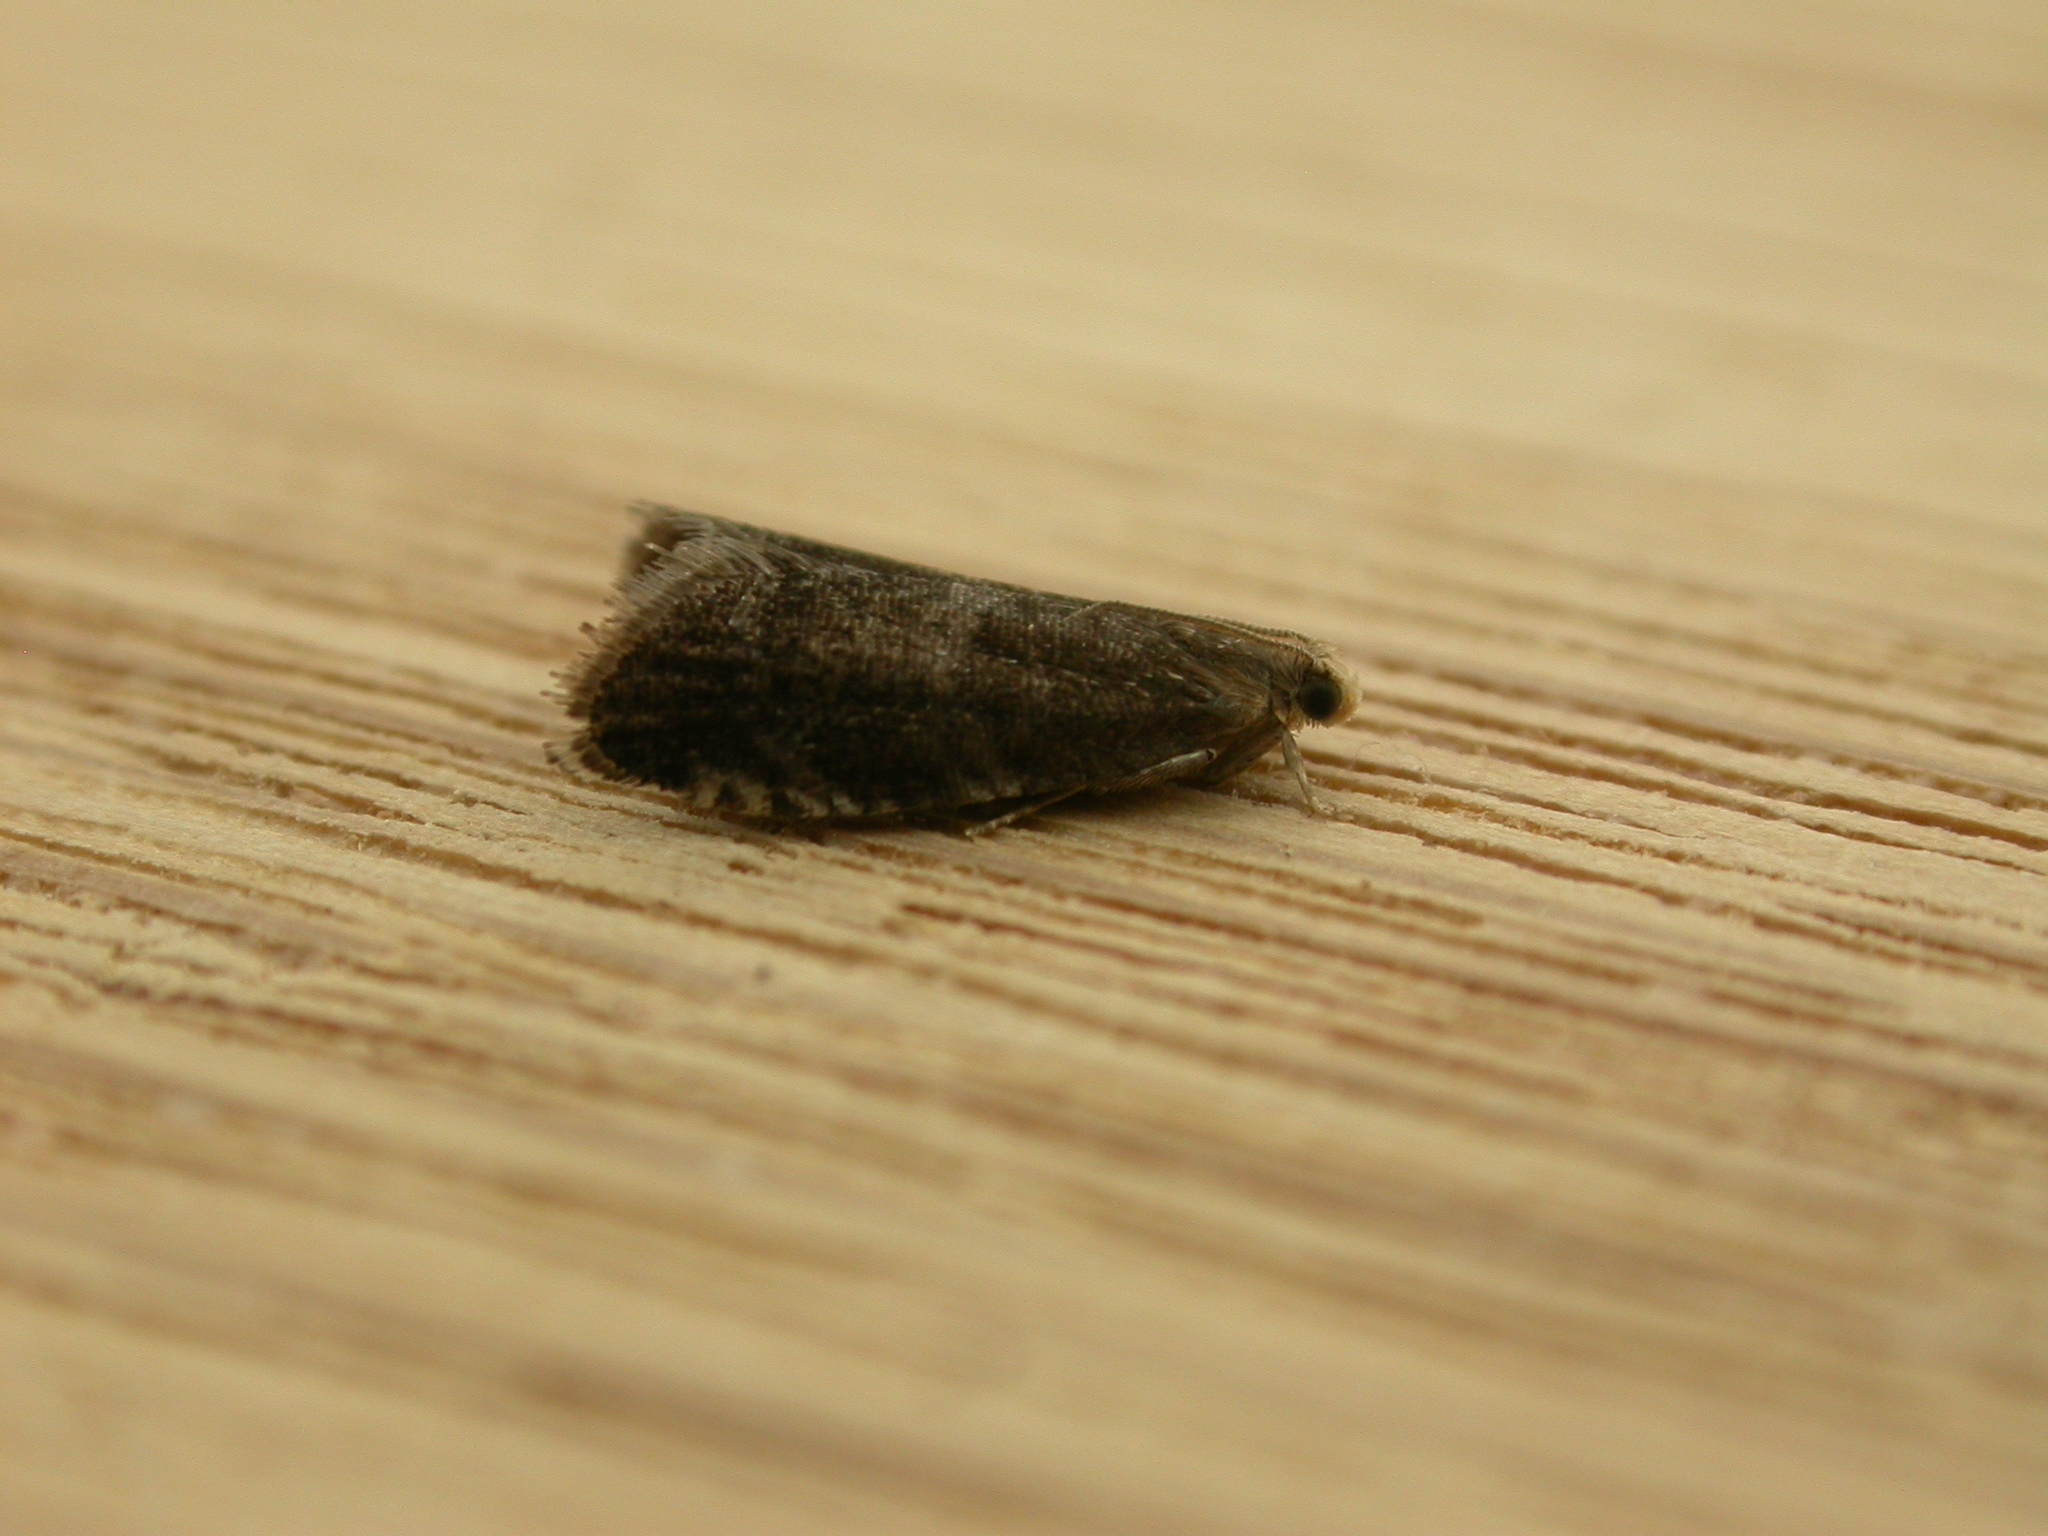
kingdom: Animalia
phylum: Arthropoda
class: Insecta
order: Lepidoptera
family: Tortricidae
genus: Strophedra
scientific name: Strophedra weirana
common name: Little beech piercer
